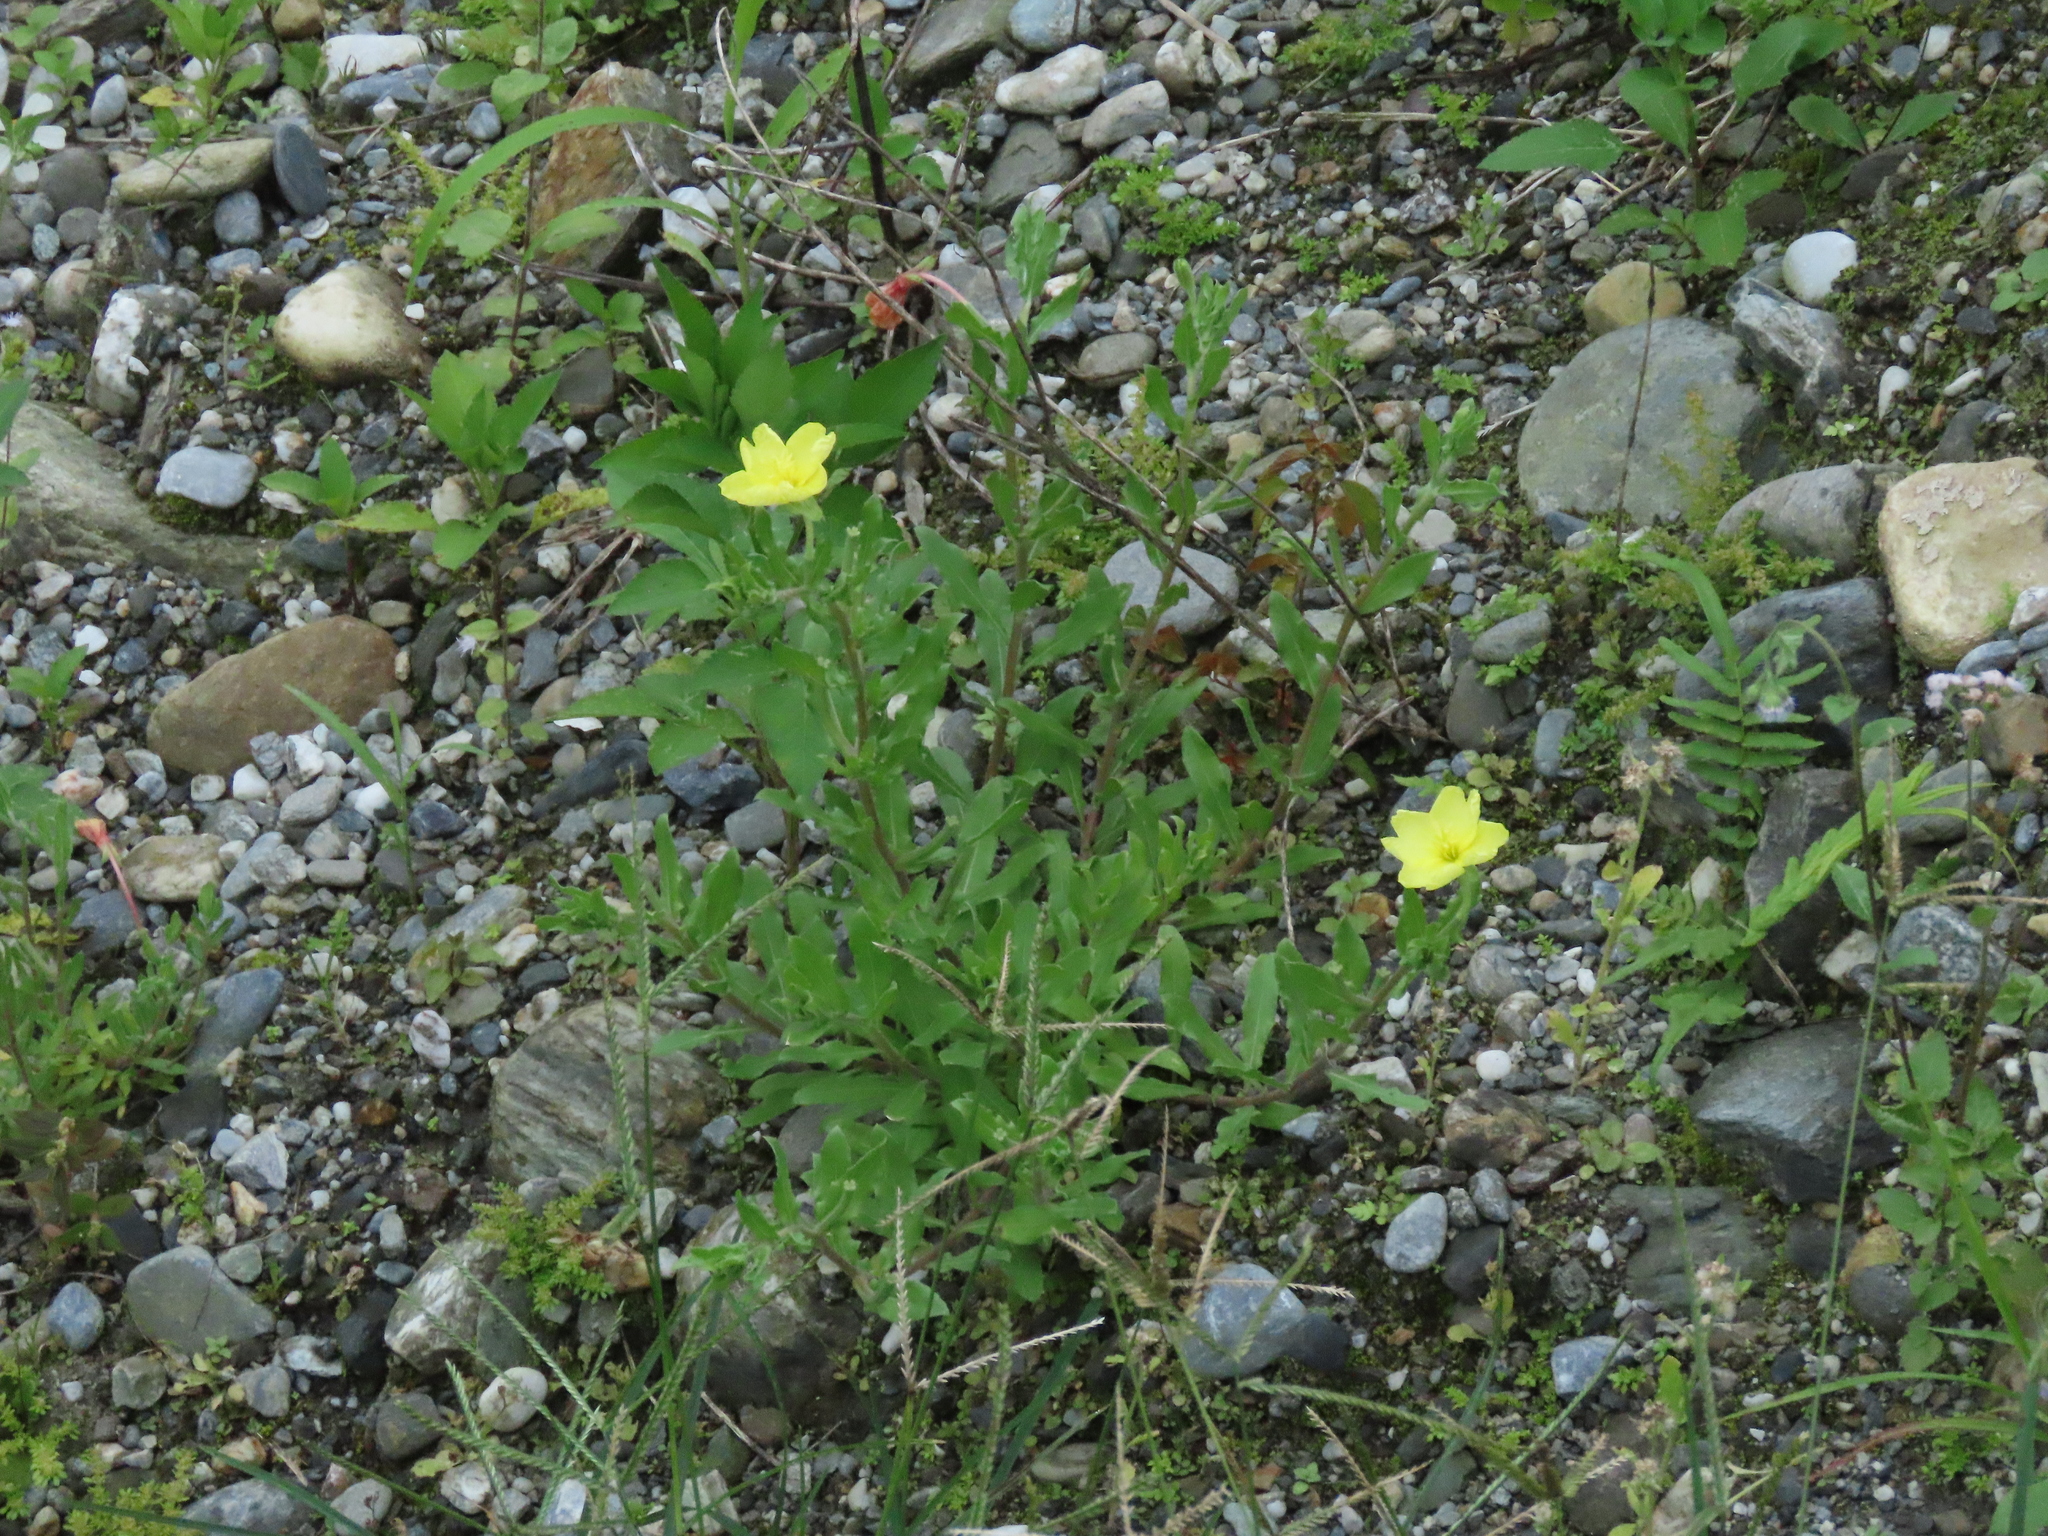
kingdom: Plantae
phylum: Tracheophyta
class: Magnoliopsida
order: Myrtales
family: Onagraceae
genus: Oenothera
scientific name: Oenothera laciniata
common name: Cut-leaved evening-primrose
